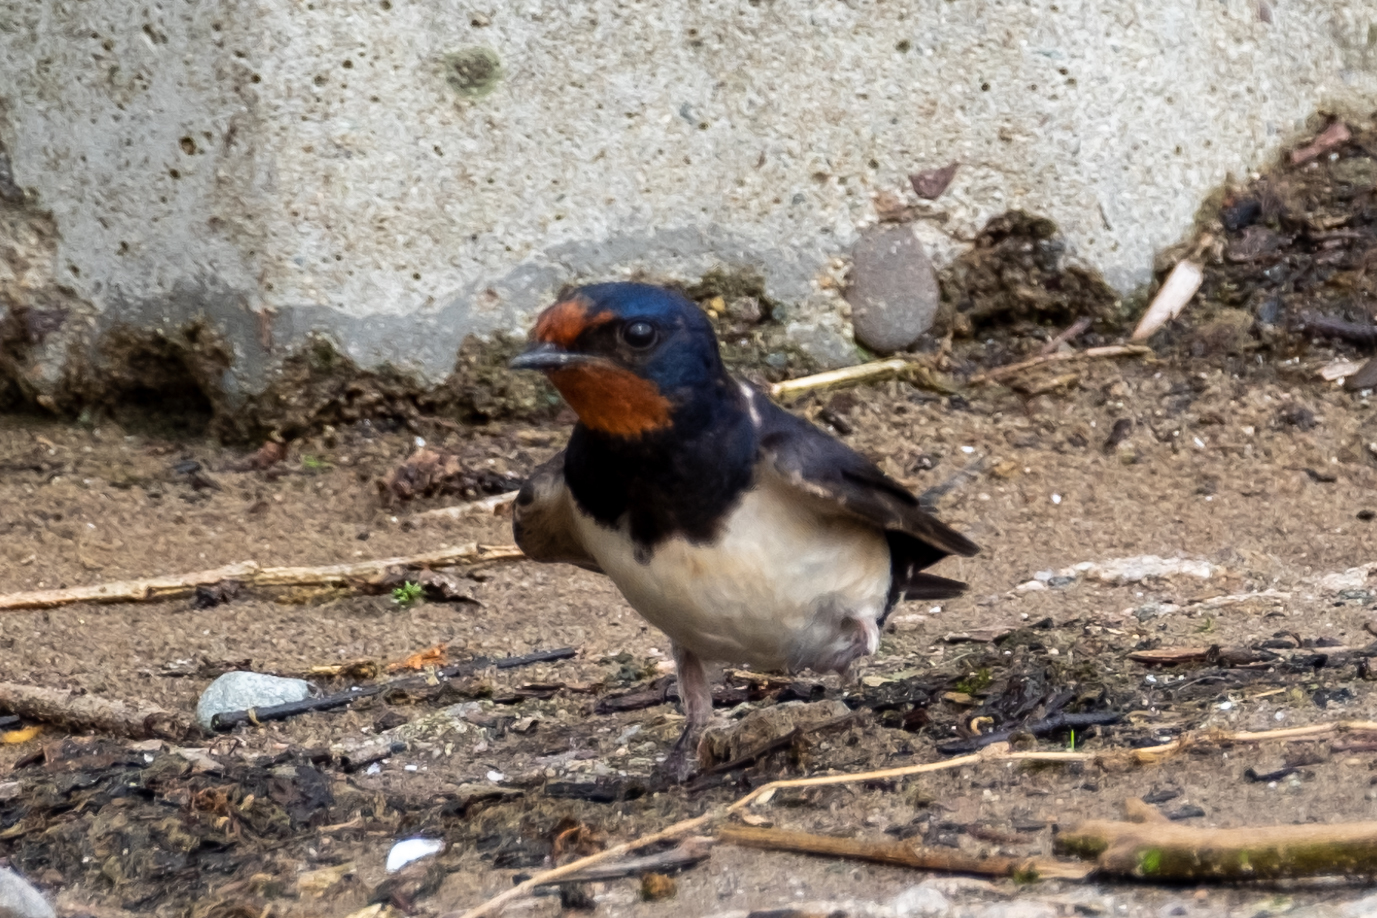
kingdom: Animalia
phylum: Chordata
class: Aves
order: Passeriformes
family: Hirundinidae
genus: Hirundo
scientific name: Hirundo rustica
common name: Barn swallow
